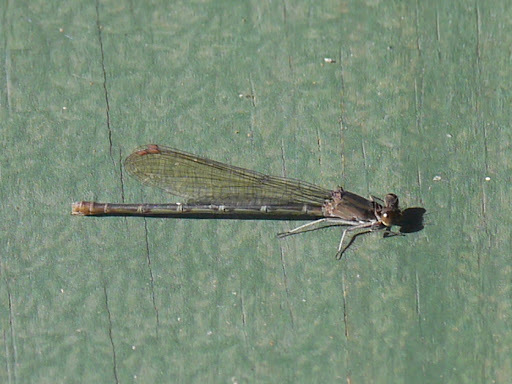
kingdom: Animalia
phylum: Arthropoda
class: Insecta
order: Odonata
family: Coenagrionidae
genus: Argia
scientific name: Argia sedula
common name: Blue-ringed dancer
